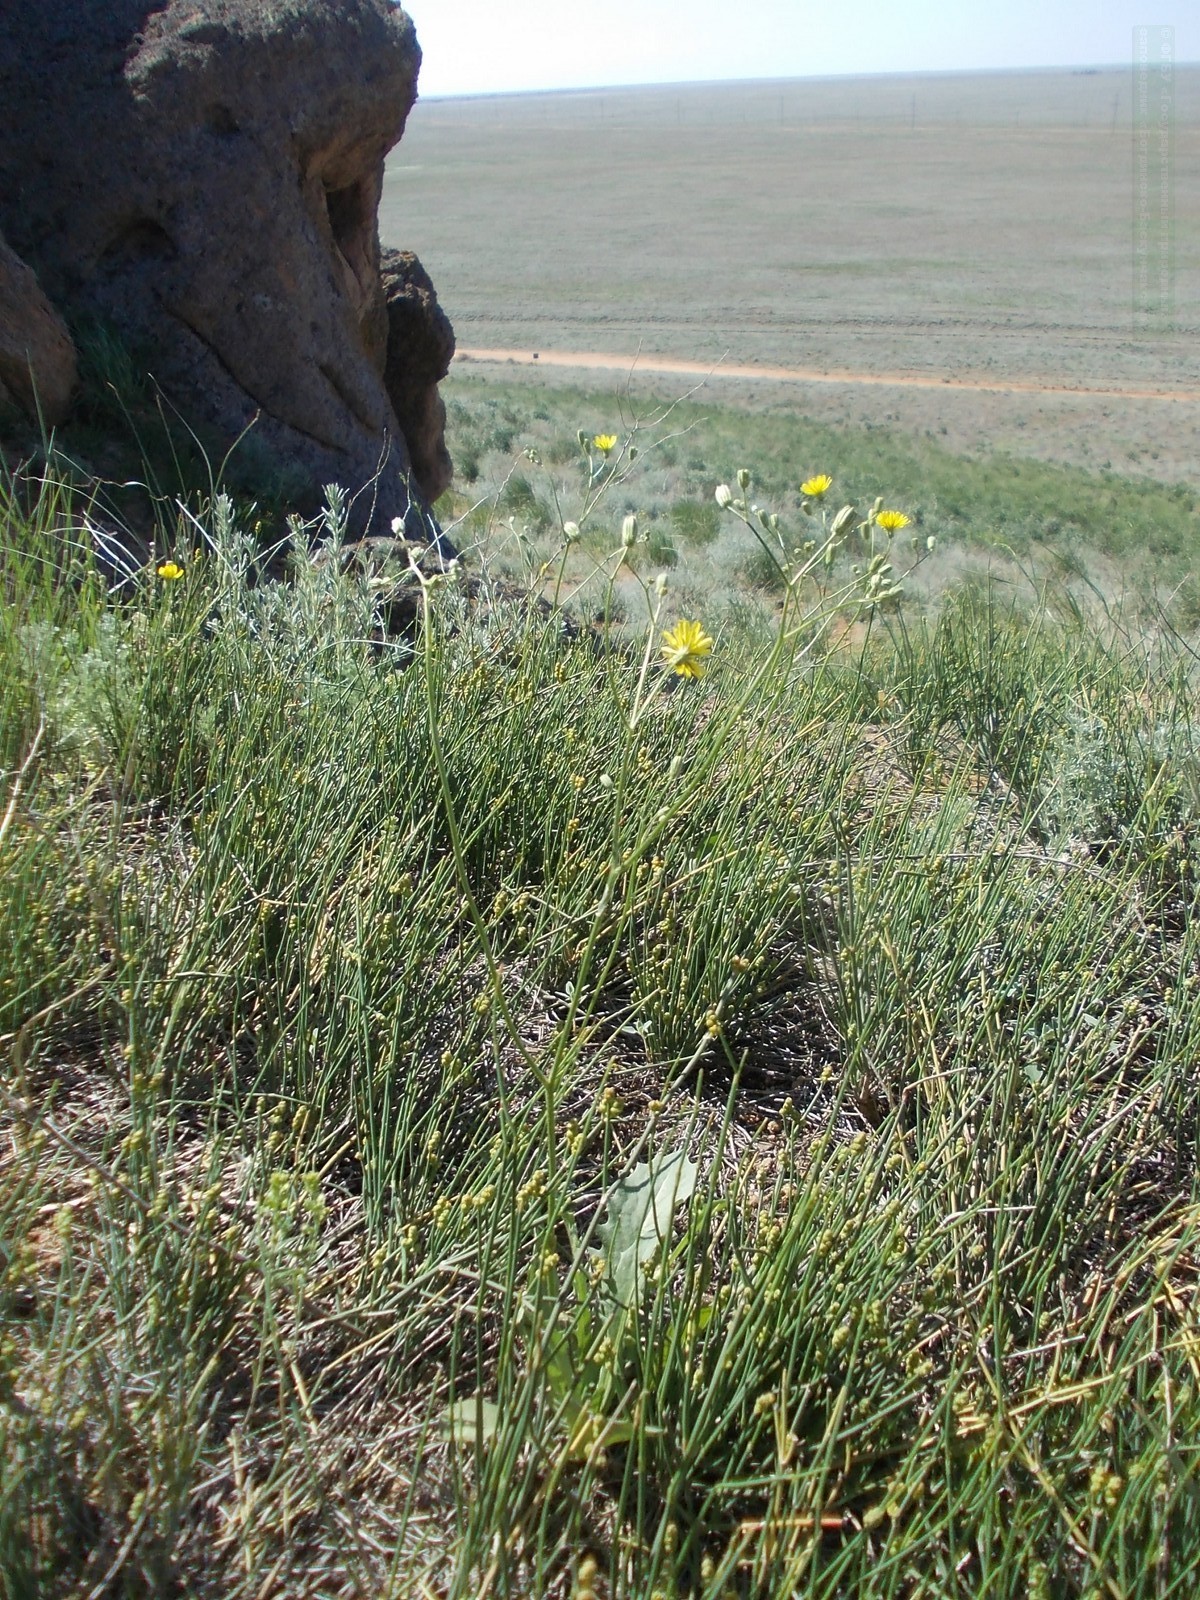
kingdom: Plantae
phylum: Tracheophyta
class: Magnoliopsida
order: Asterales
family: Asteraceae
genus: Crepis
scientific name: Crepis sancta
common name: Hawk's-beard
